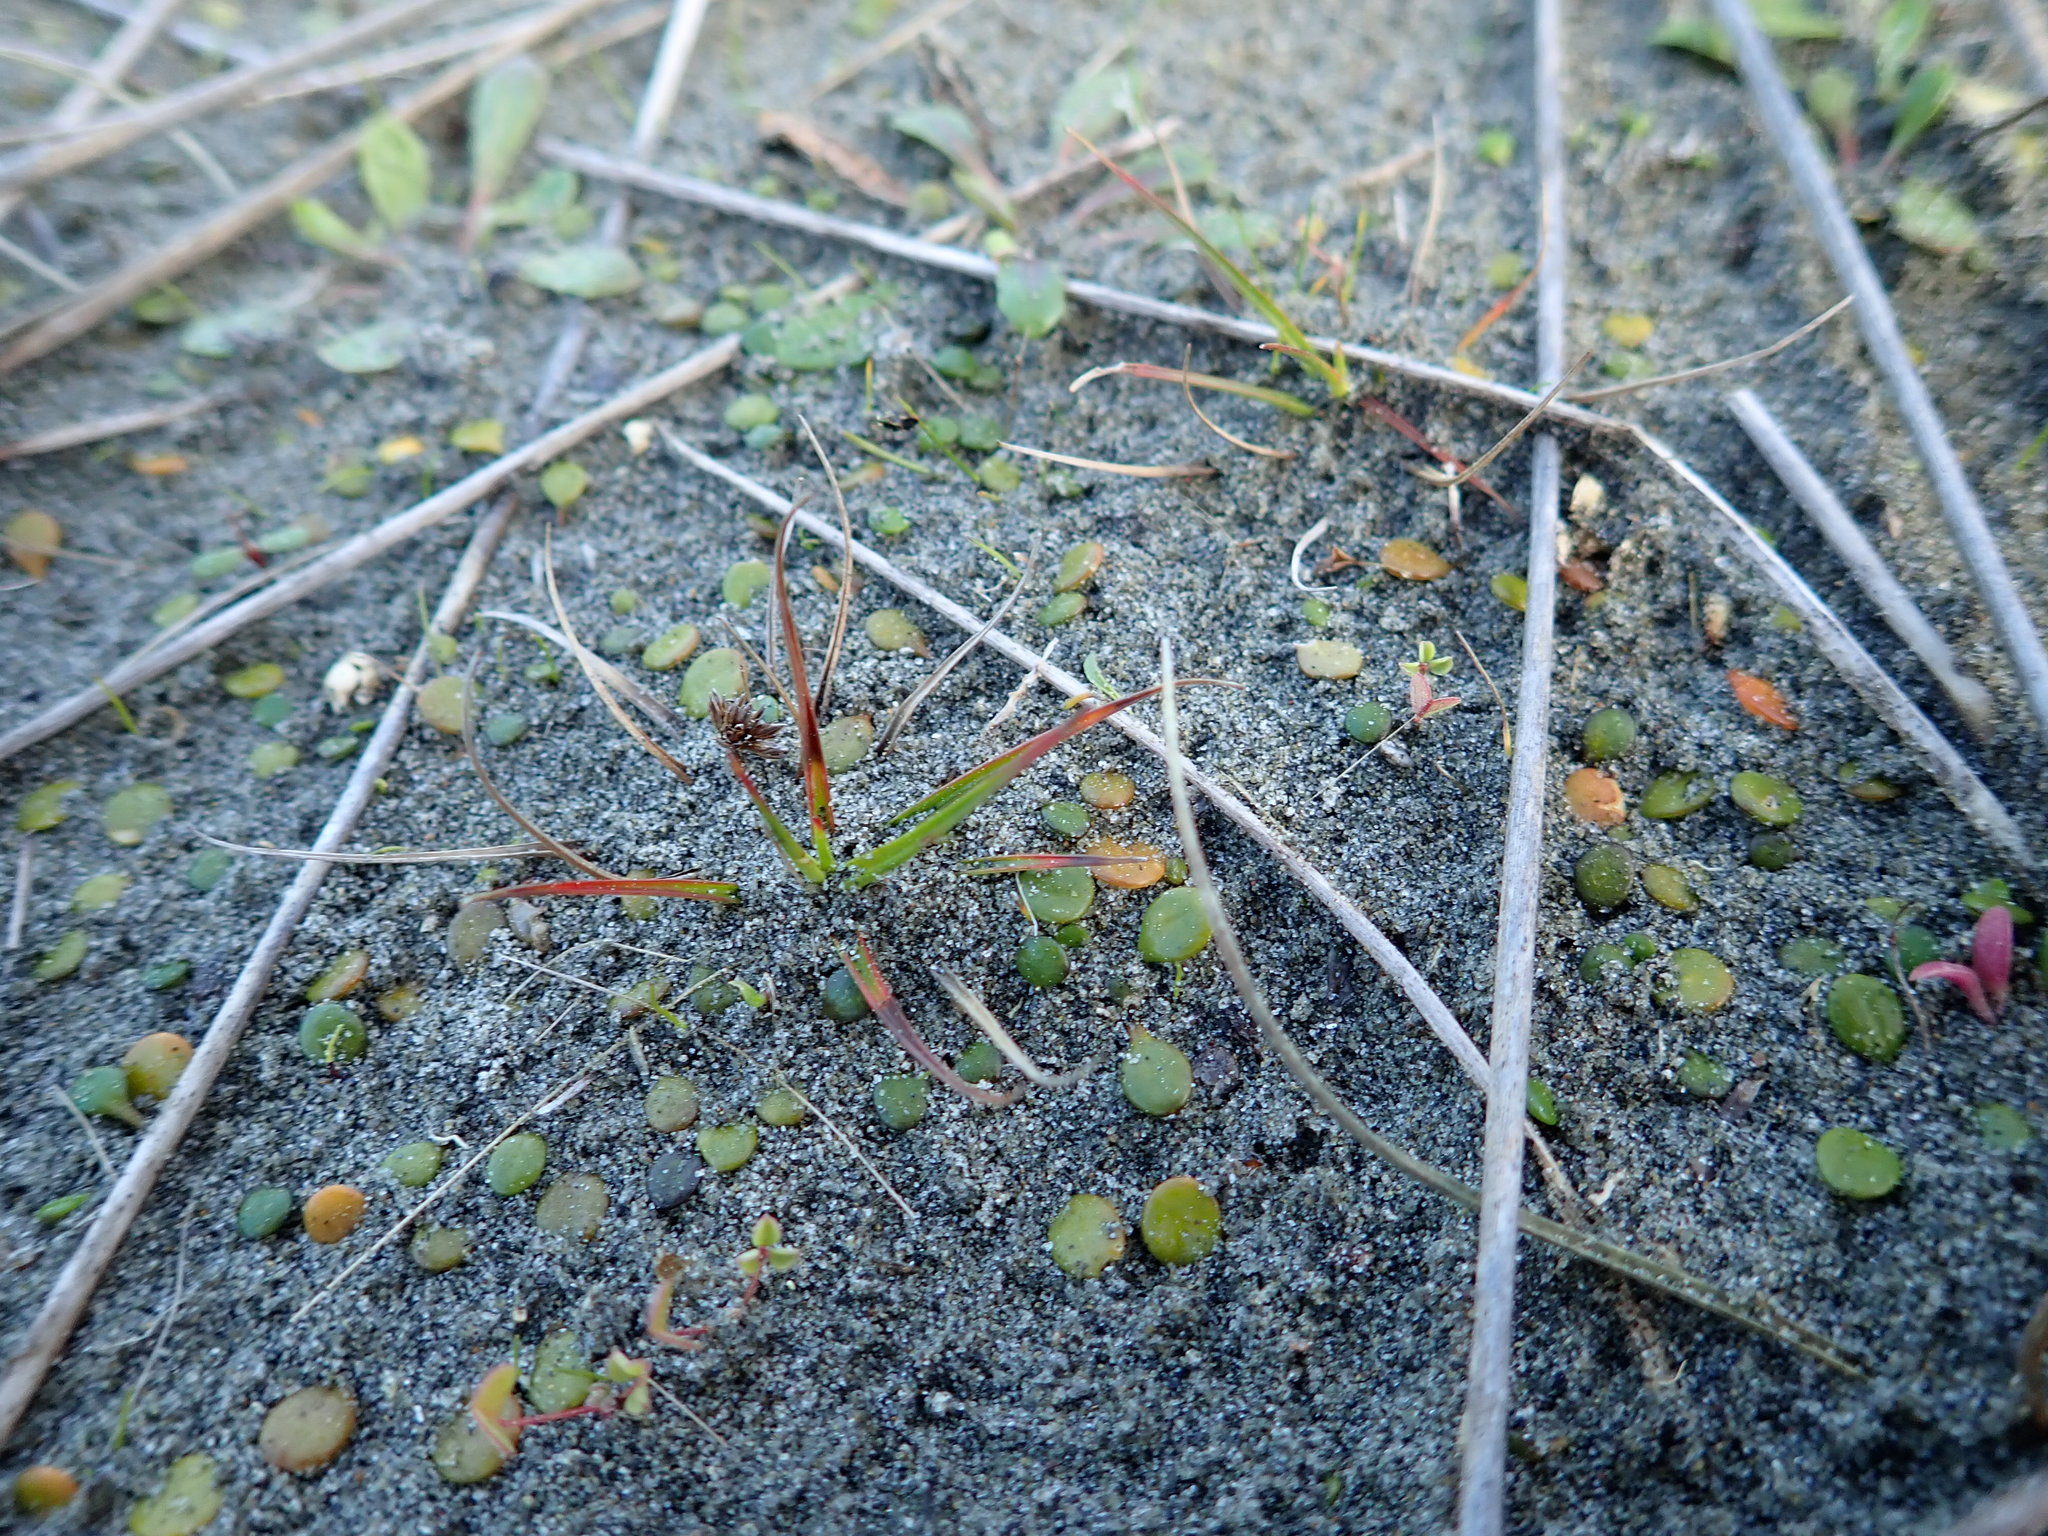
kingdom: Plantae
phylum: Tracheophyta
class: Liliopsida
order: Poales
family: Juncaceae
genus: Juncus
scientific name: Juncus caespiticius
